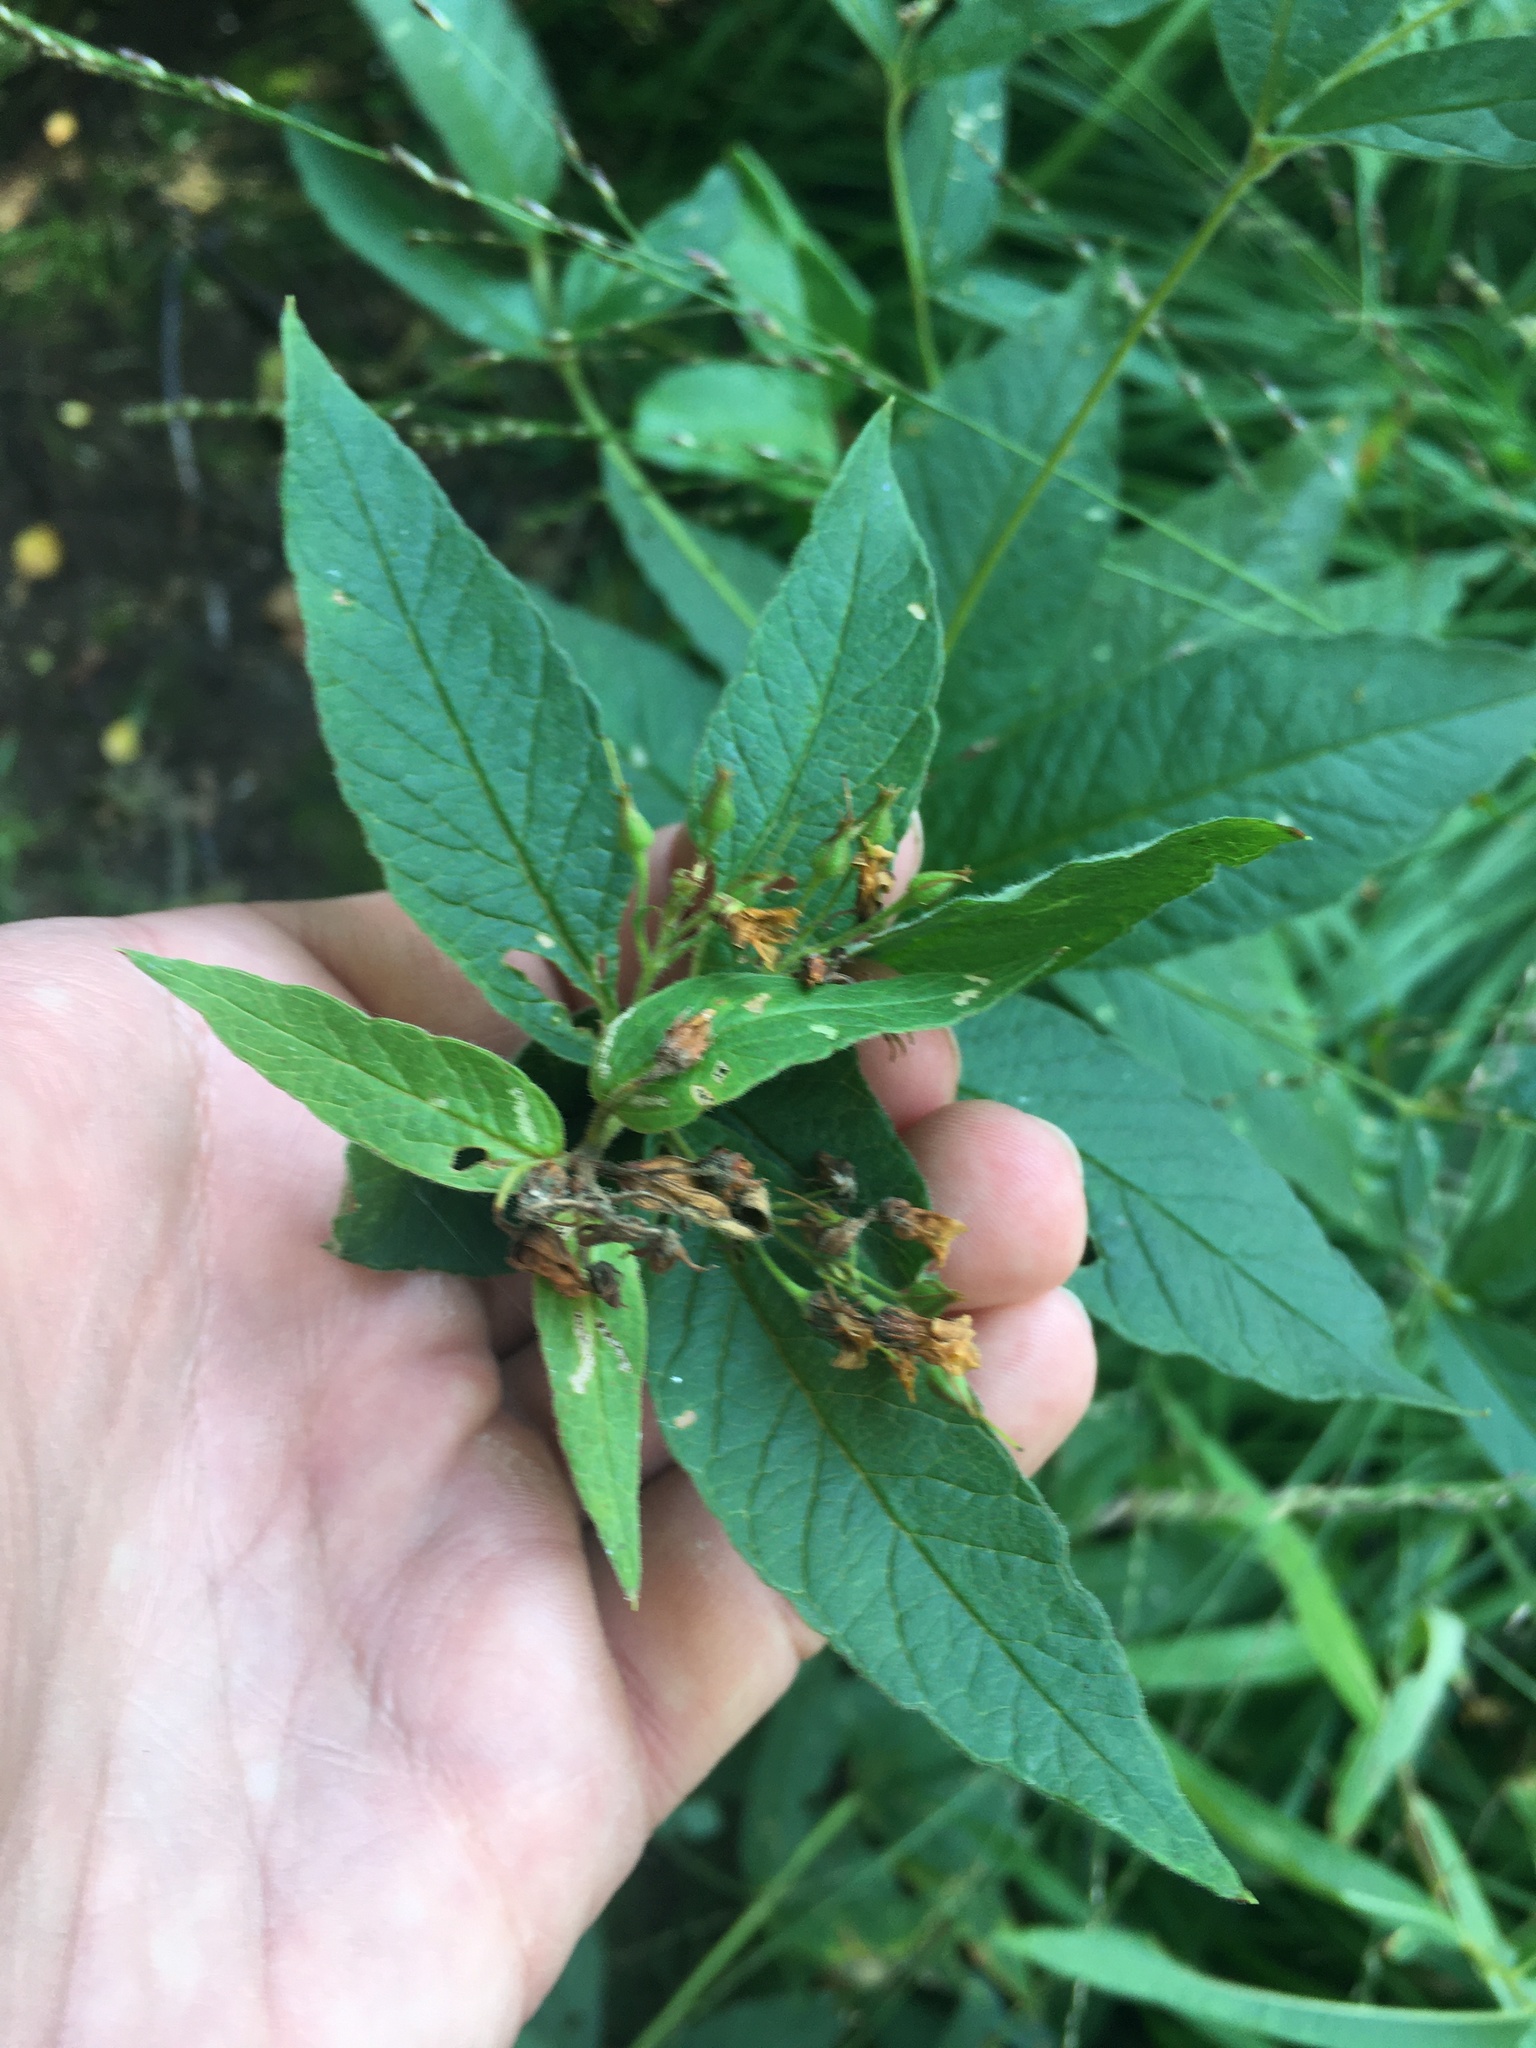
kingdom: Plantae
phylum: Tracheophyta
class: Magnoliopsida
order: Ericales
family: Primulaceae
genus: Lysimachia
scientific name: Lysimachia vulgaris
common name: Yellow loosestrife
